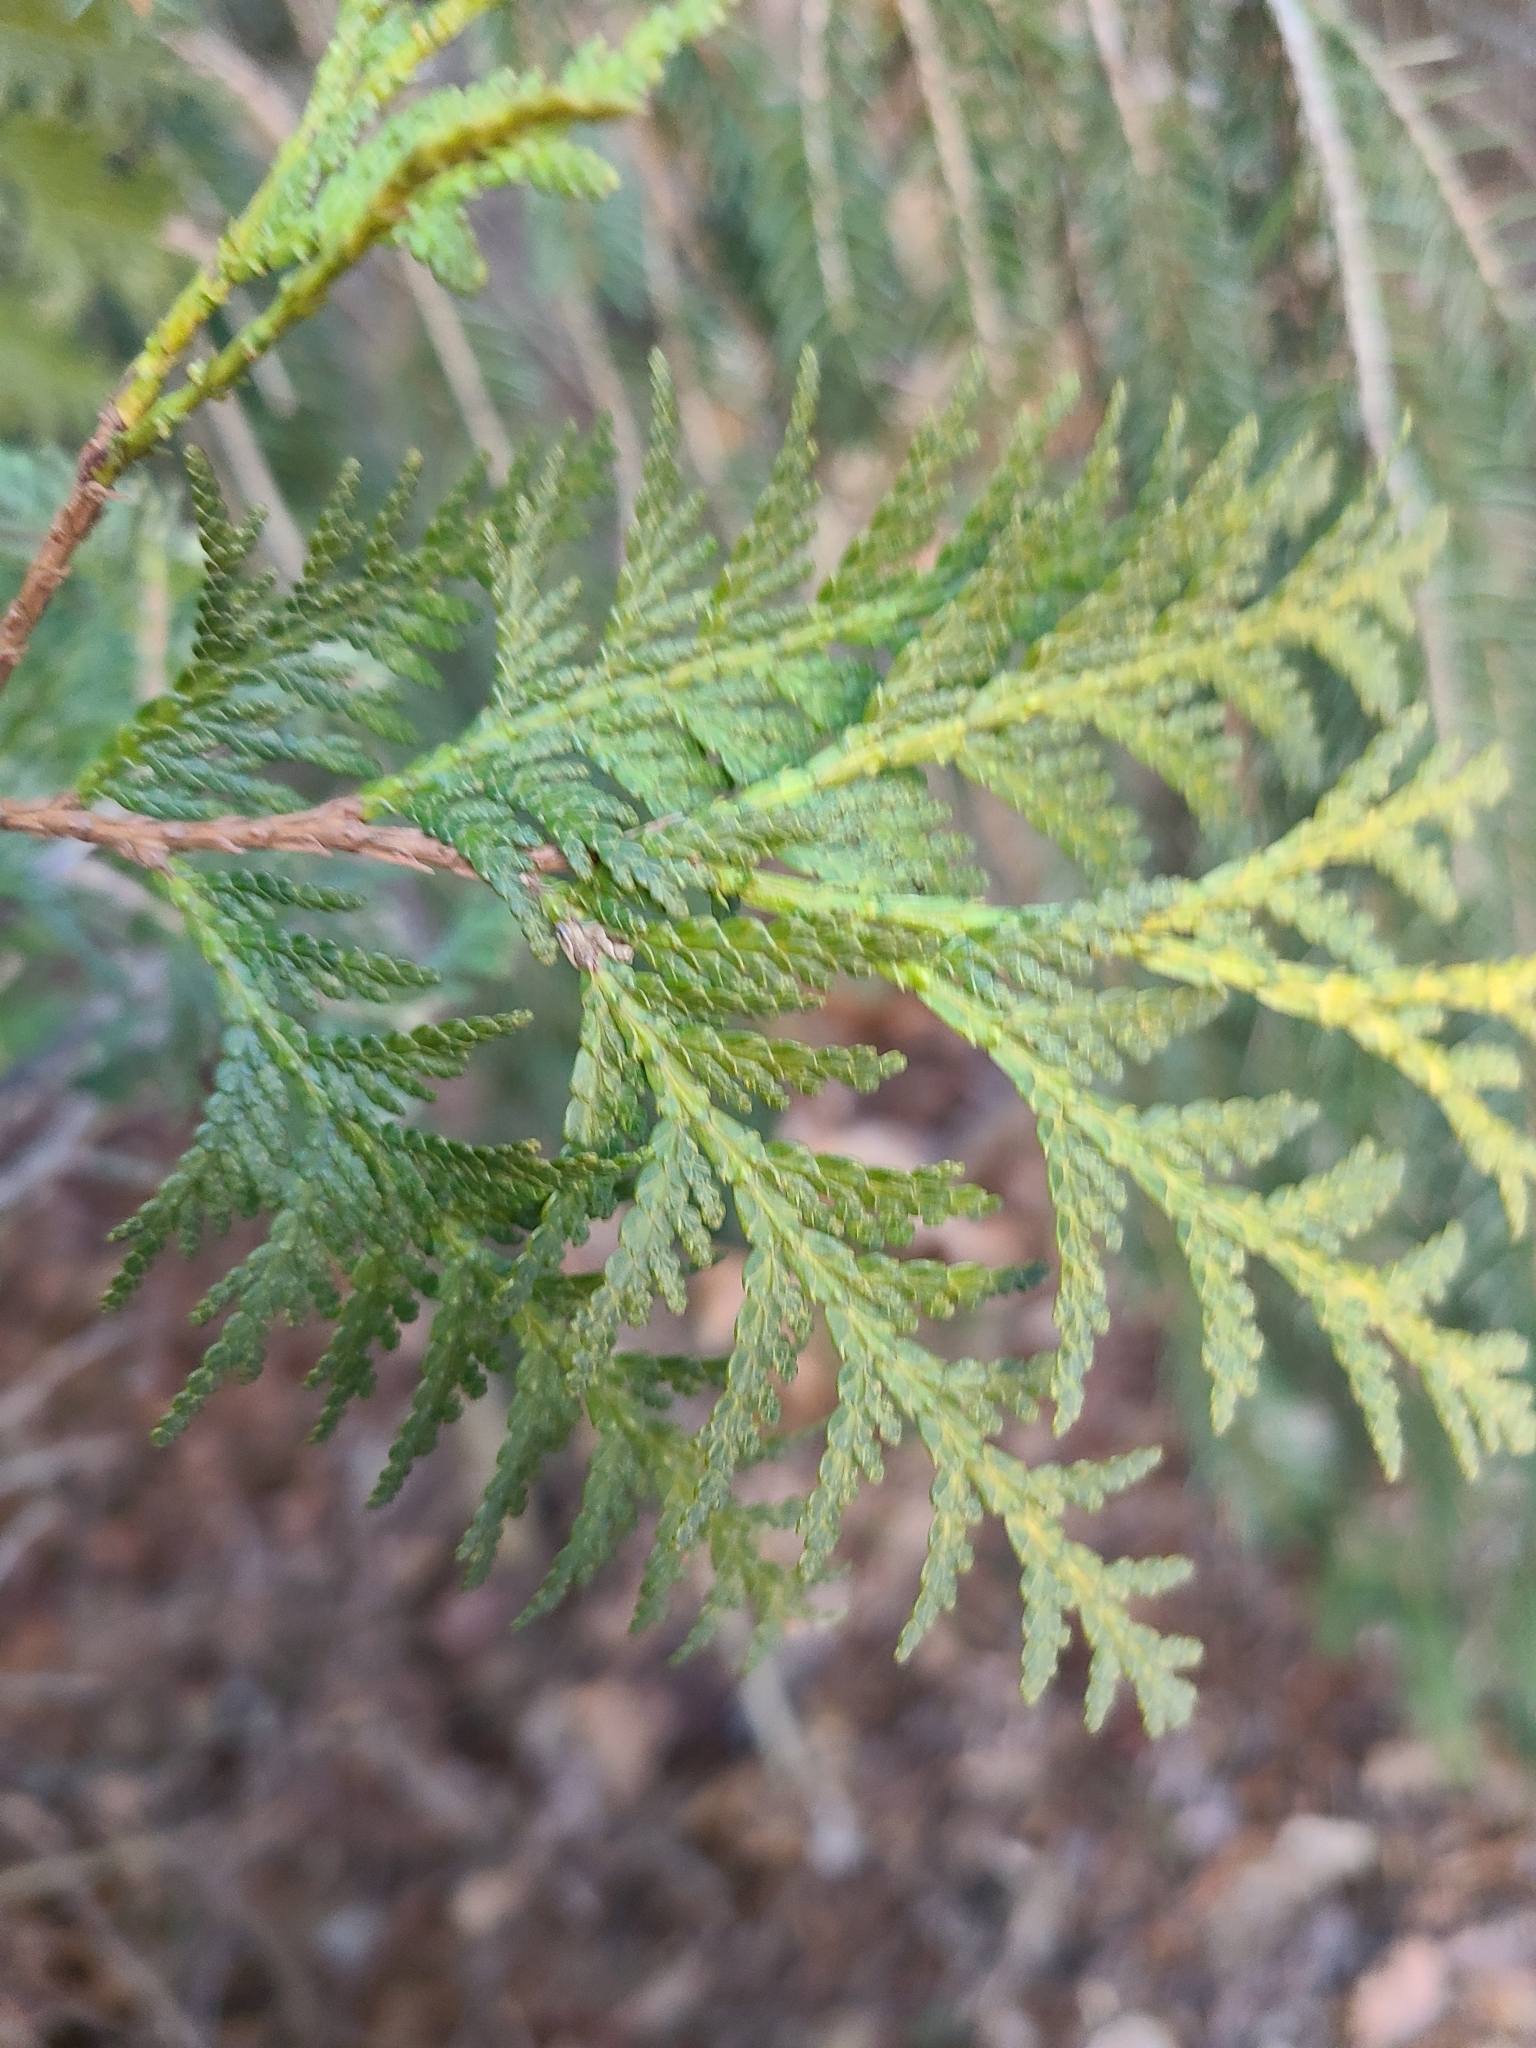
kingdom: Plantae
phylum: Tracheophyta
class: Pinopsida
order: Pinales
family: Cupressaceae
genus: Thuja
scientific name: Thuja occidentalis
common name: Northern white-cedar
